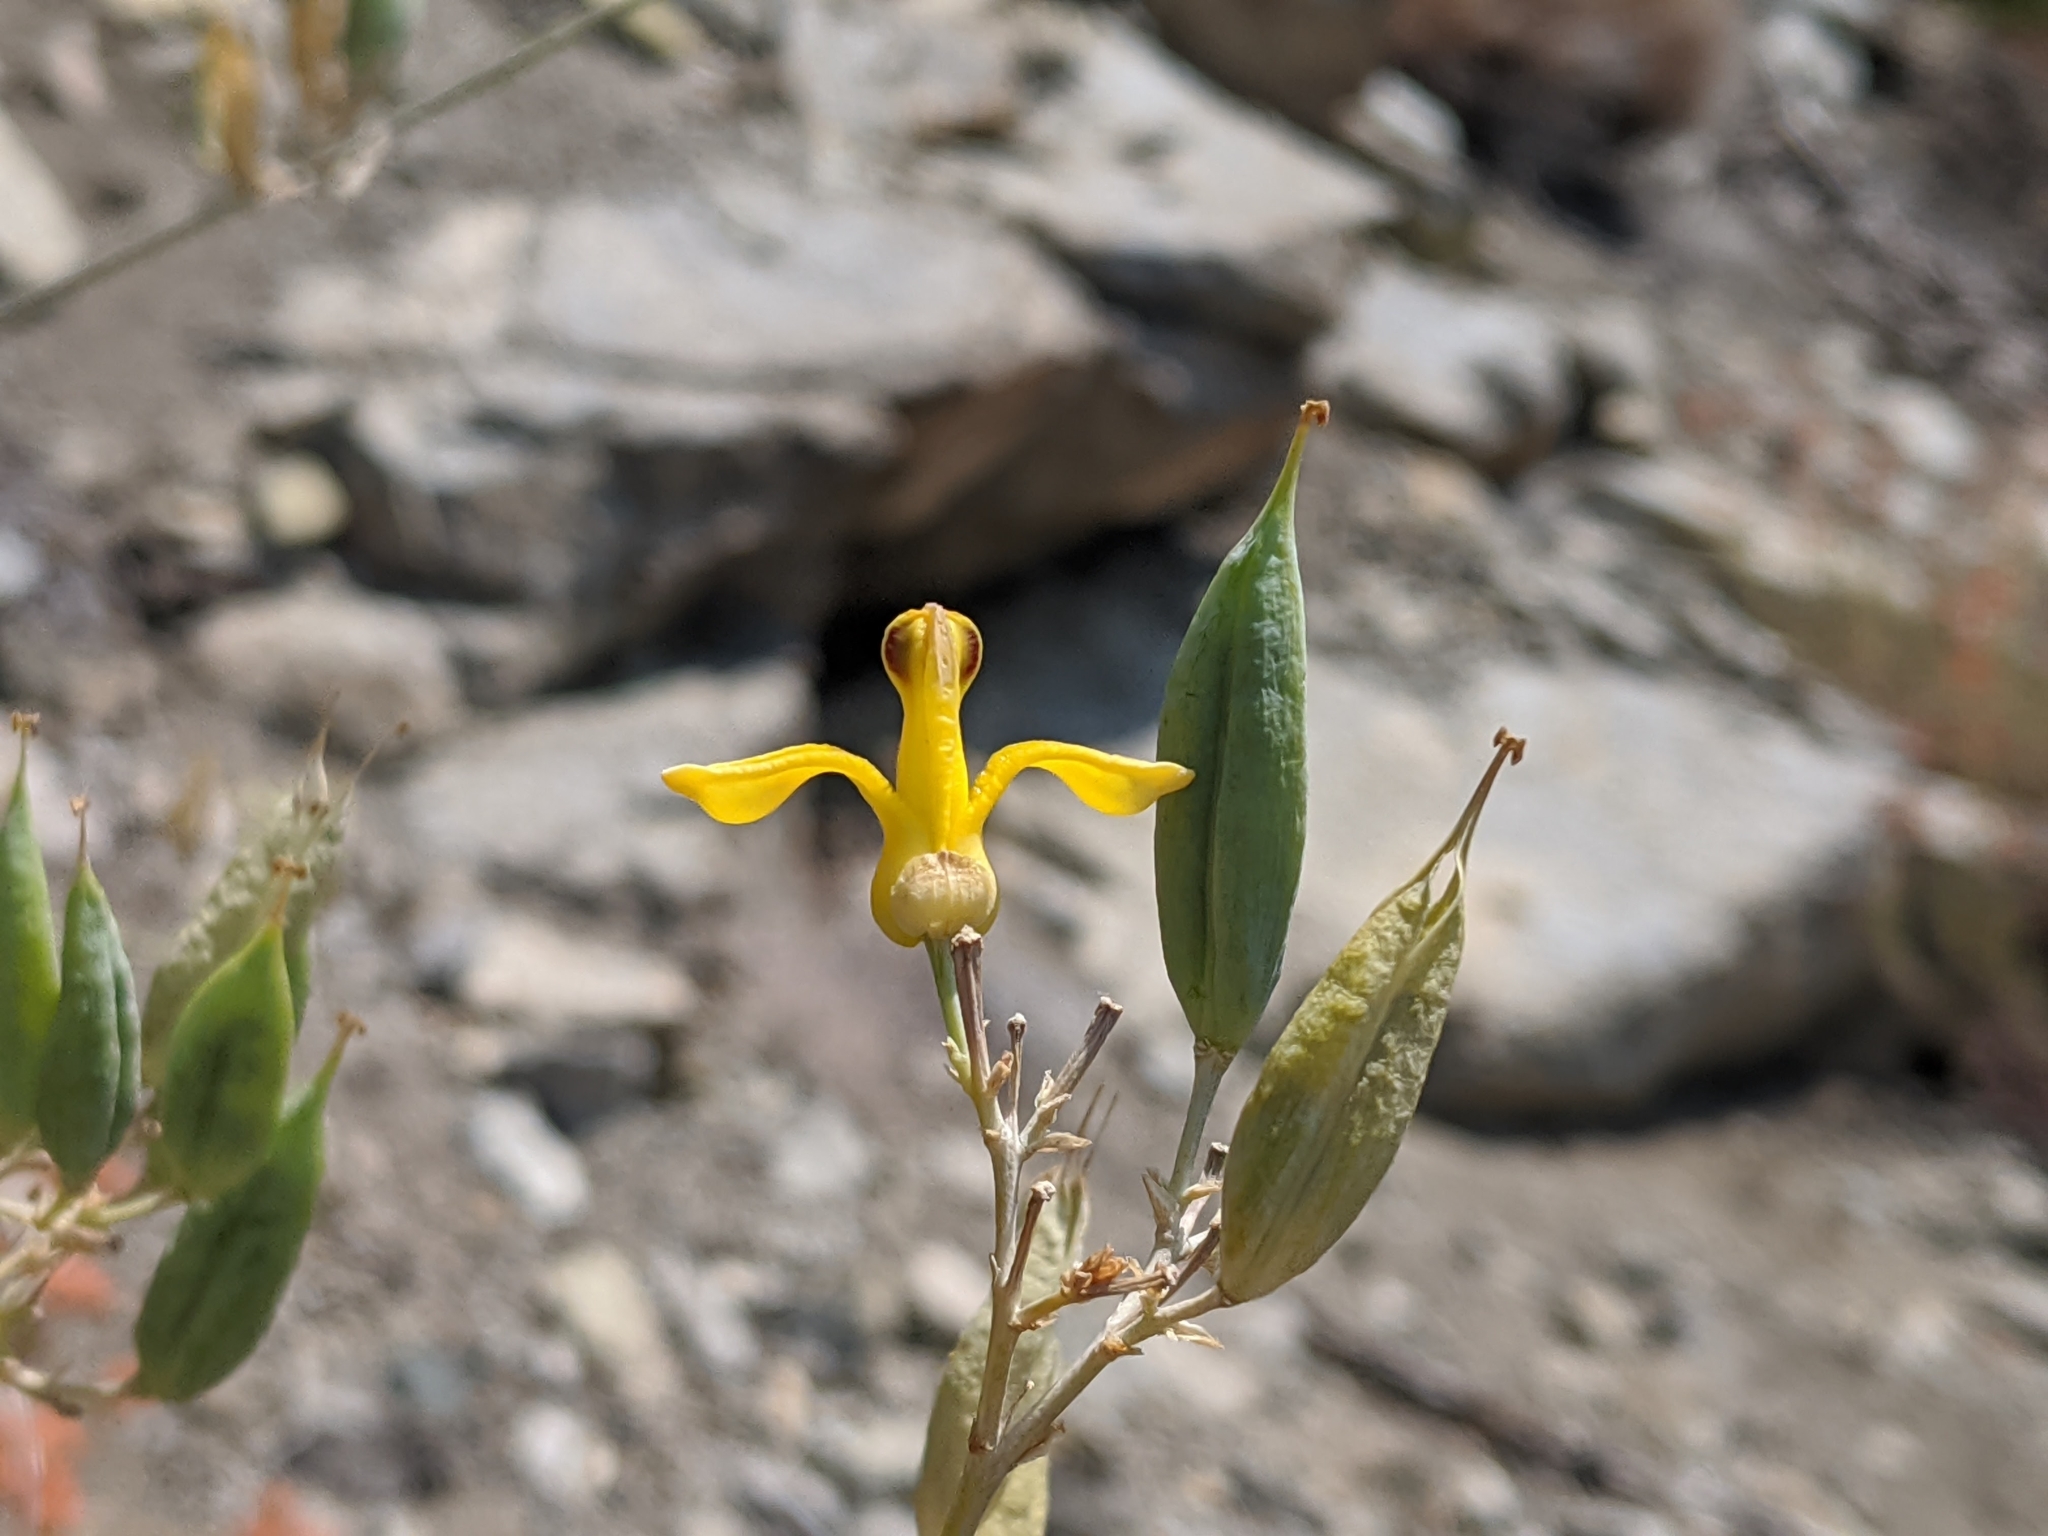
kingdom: Plantae
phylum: Tracheophyta
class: Magnoliopsida
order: Ranunculales
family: Papaveraceae
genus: Ehrendorferia
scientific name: Ehrendorferia chrysantha
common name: Golden eardrops
